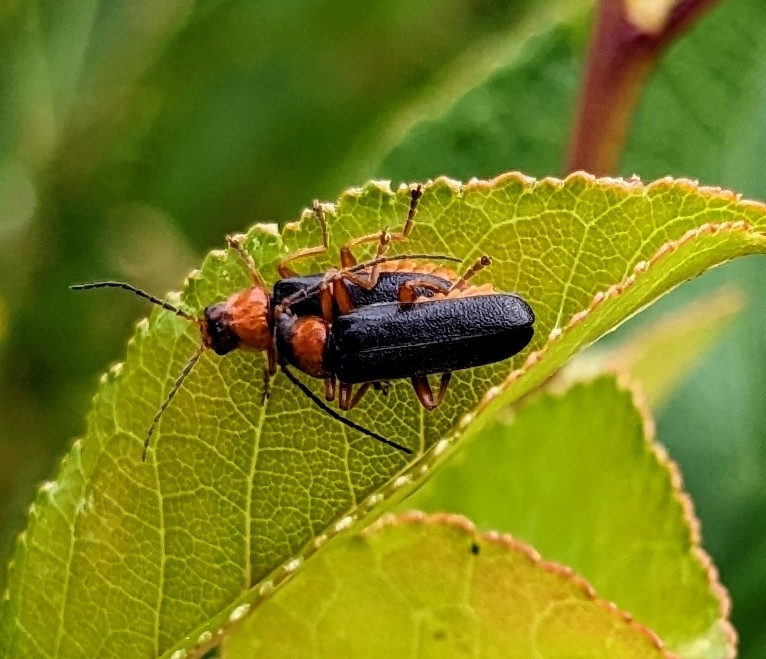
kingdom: Animalia
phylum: Arthropoda
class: Insecta
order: Coleoptera
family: Cantharidae
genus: Cantharis
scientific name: Cantharis flavilabris
